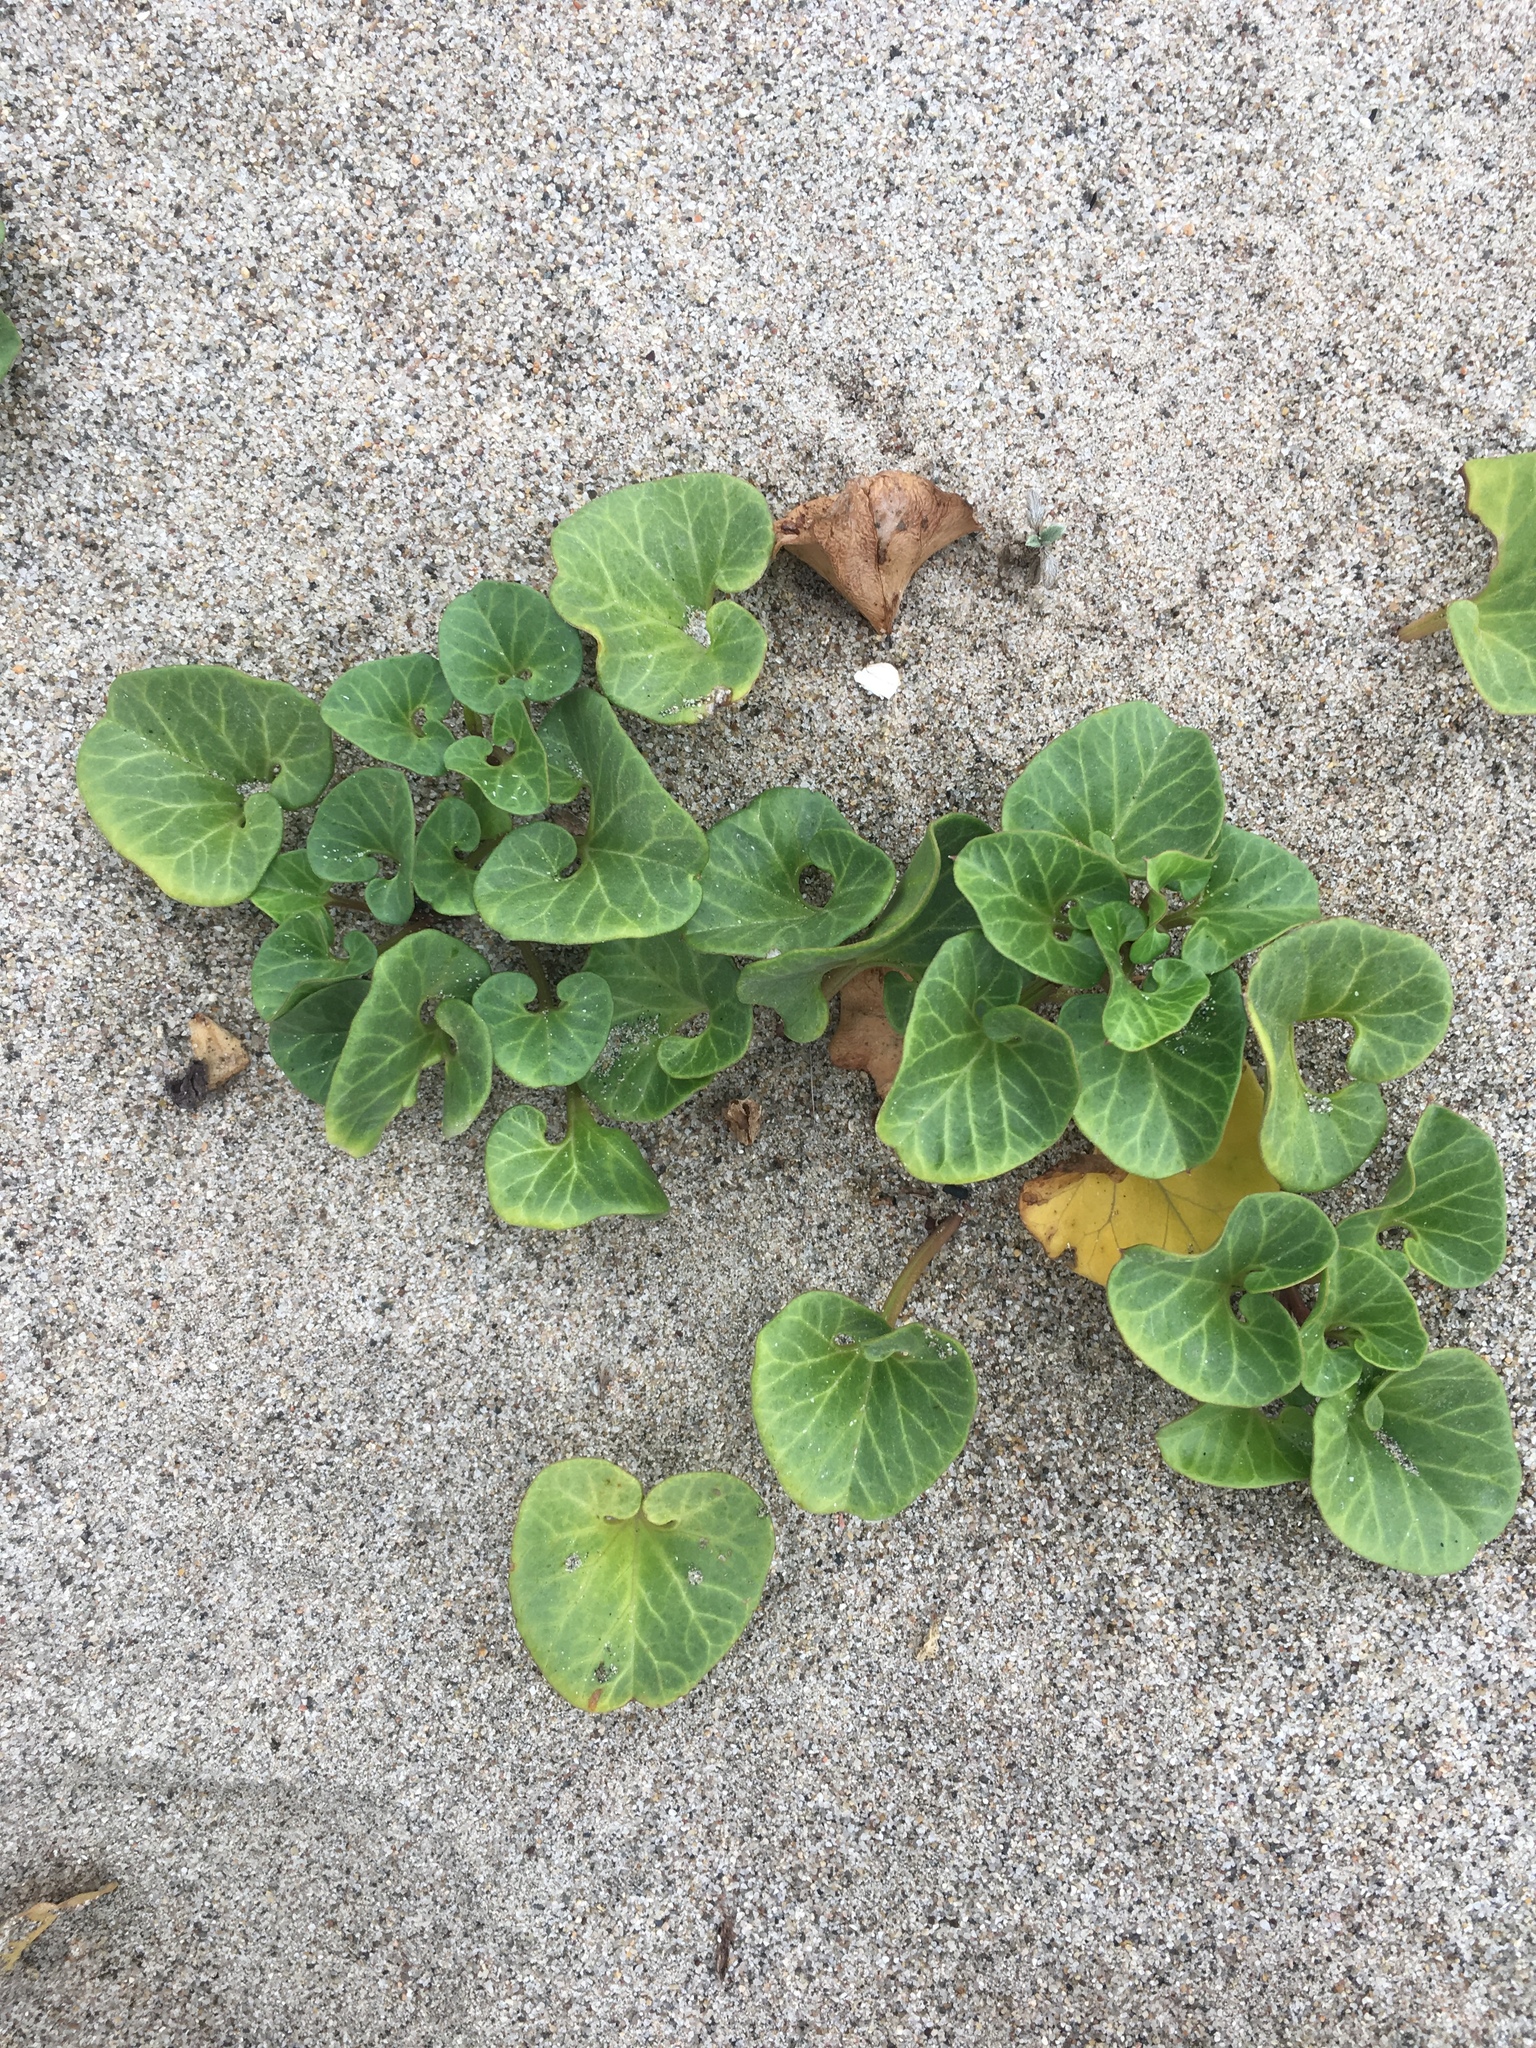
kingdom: Plantae
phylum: Tracheophyta
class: Magnoliopsida
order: Solanales
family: Convolvulaceae
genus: Calystegia
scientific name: Calystegia soldanella
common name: Sea bindweed
